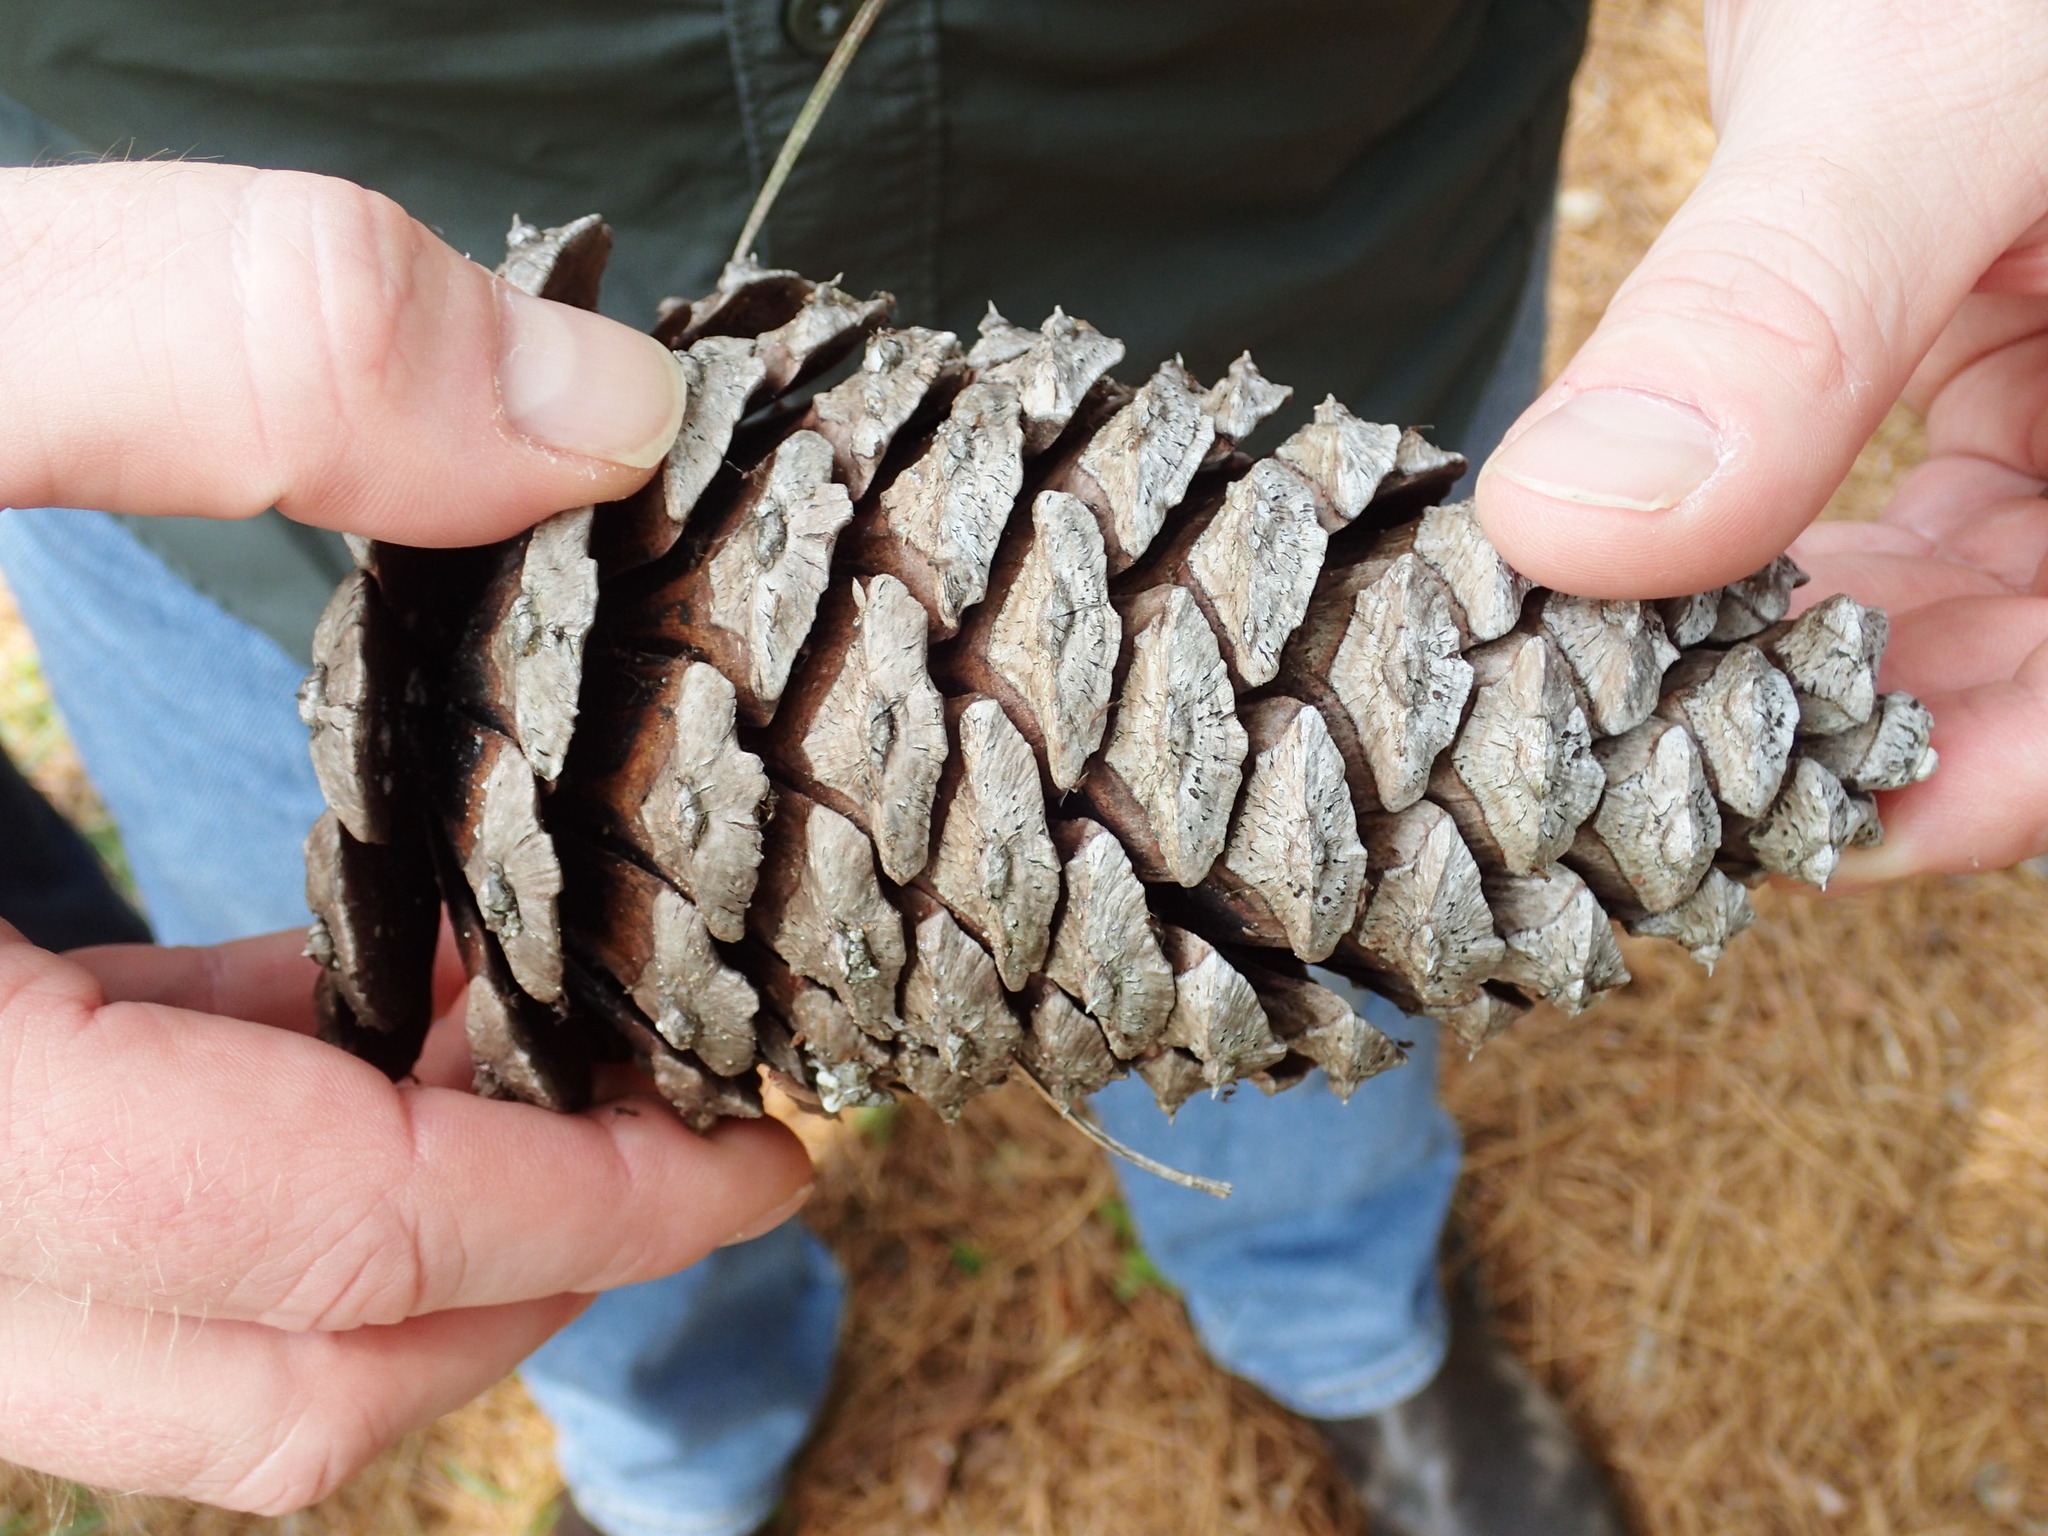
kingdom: Plantae
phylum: Tracheophyta
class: Pinopsida
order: Pinales
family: Pinaceae
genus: Pinus
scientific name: Pinus palustris
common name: Longleaf pine
